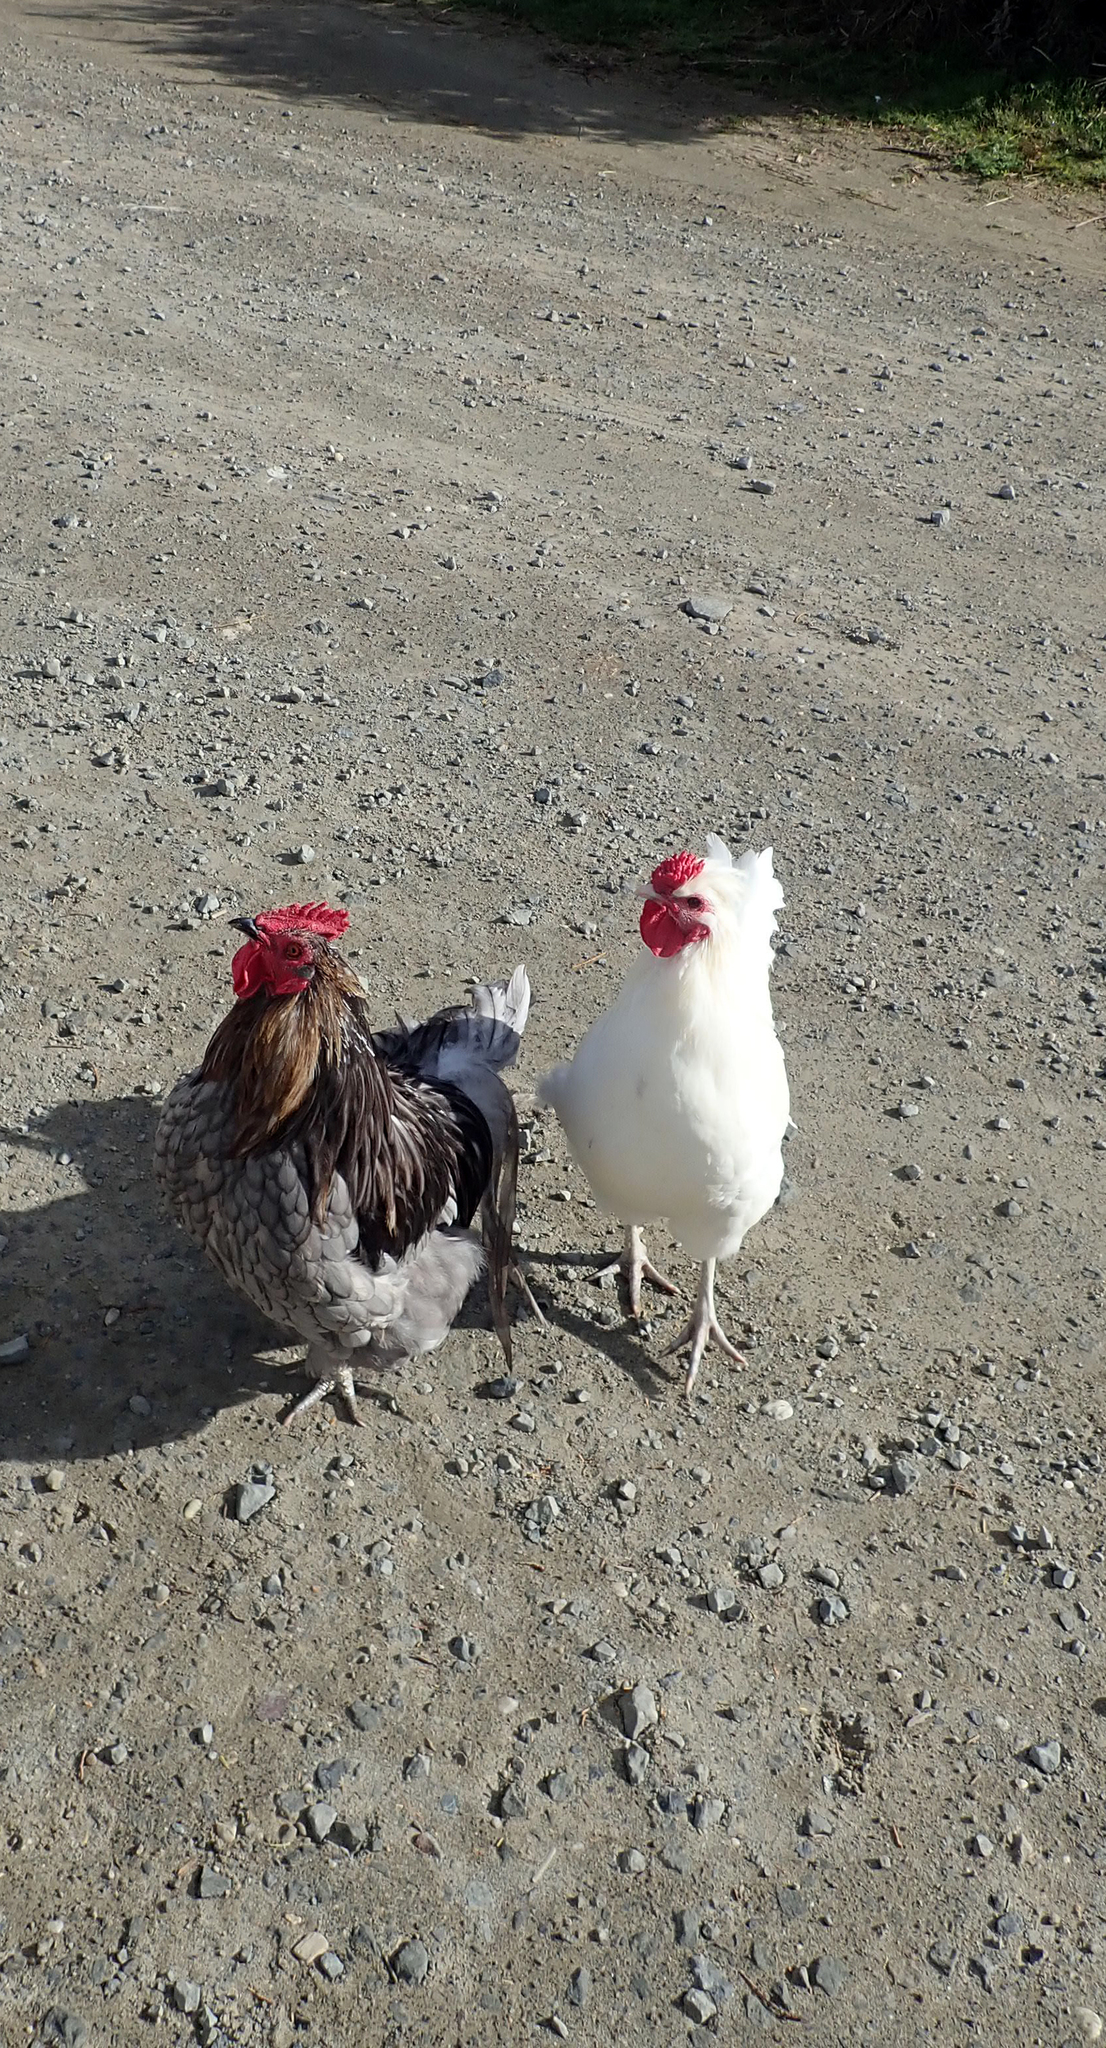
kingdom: Animalia
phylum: Chordata
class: Aves
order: Galliformes
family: Phasianidae
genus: Gallus
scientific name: Gallus gallus
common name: Red junglefowl
